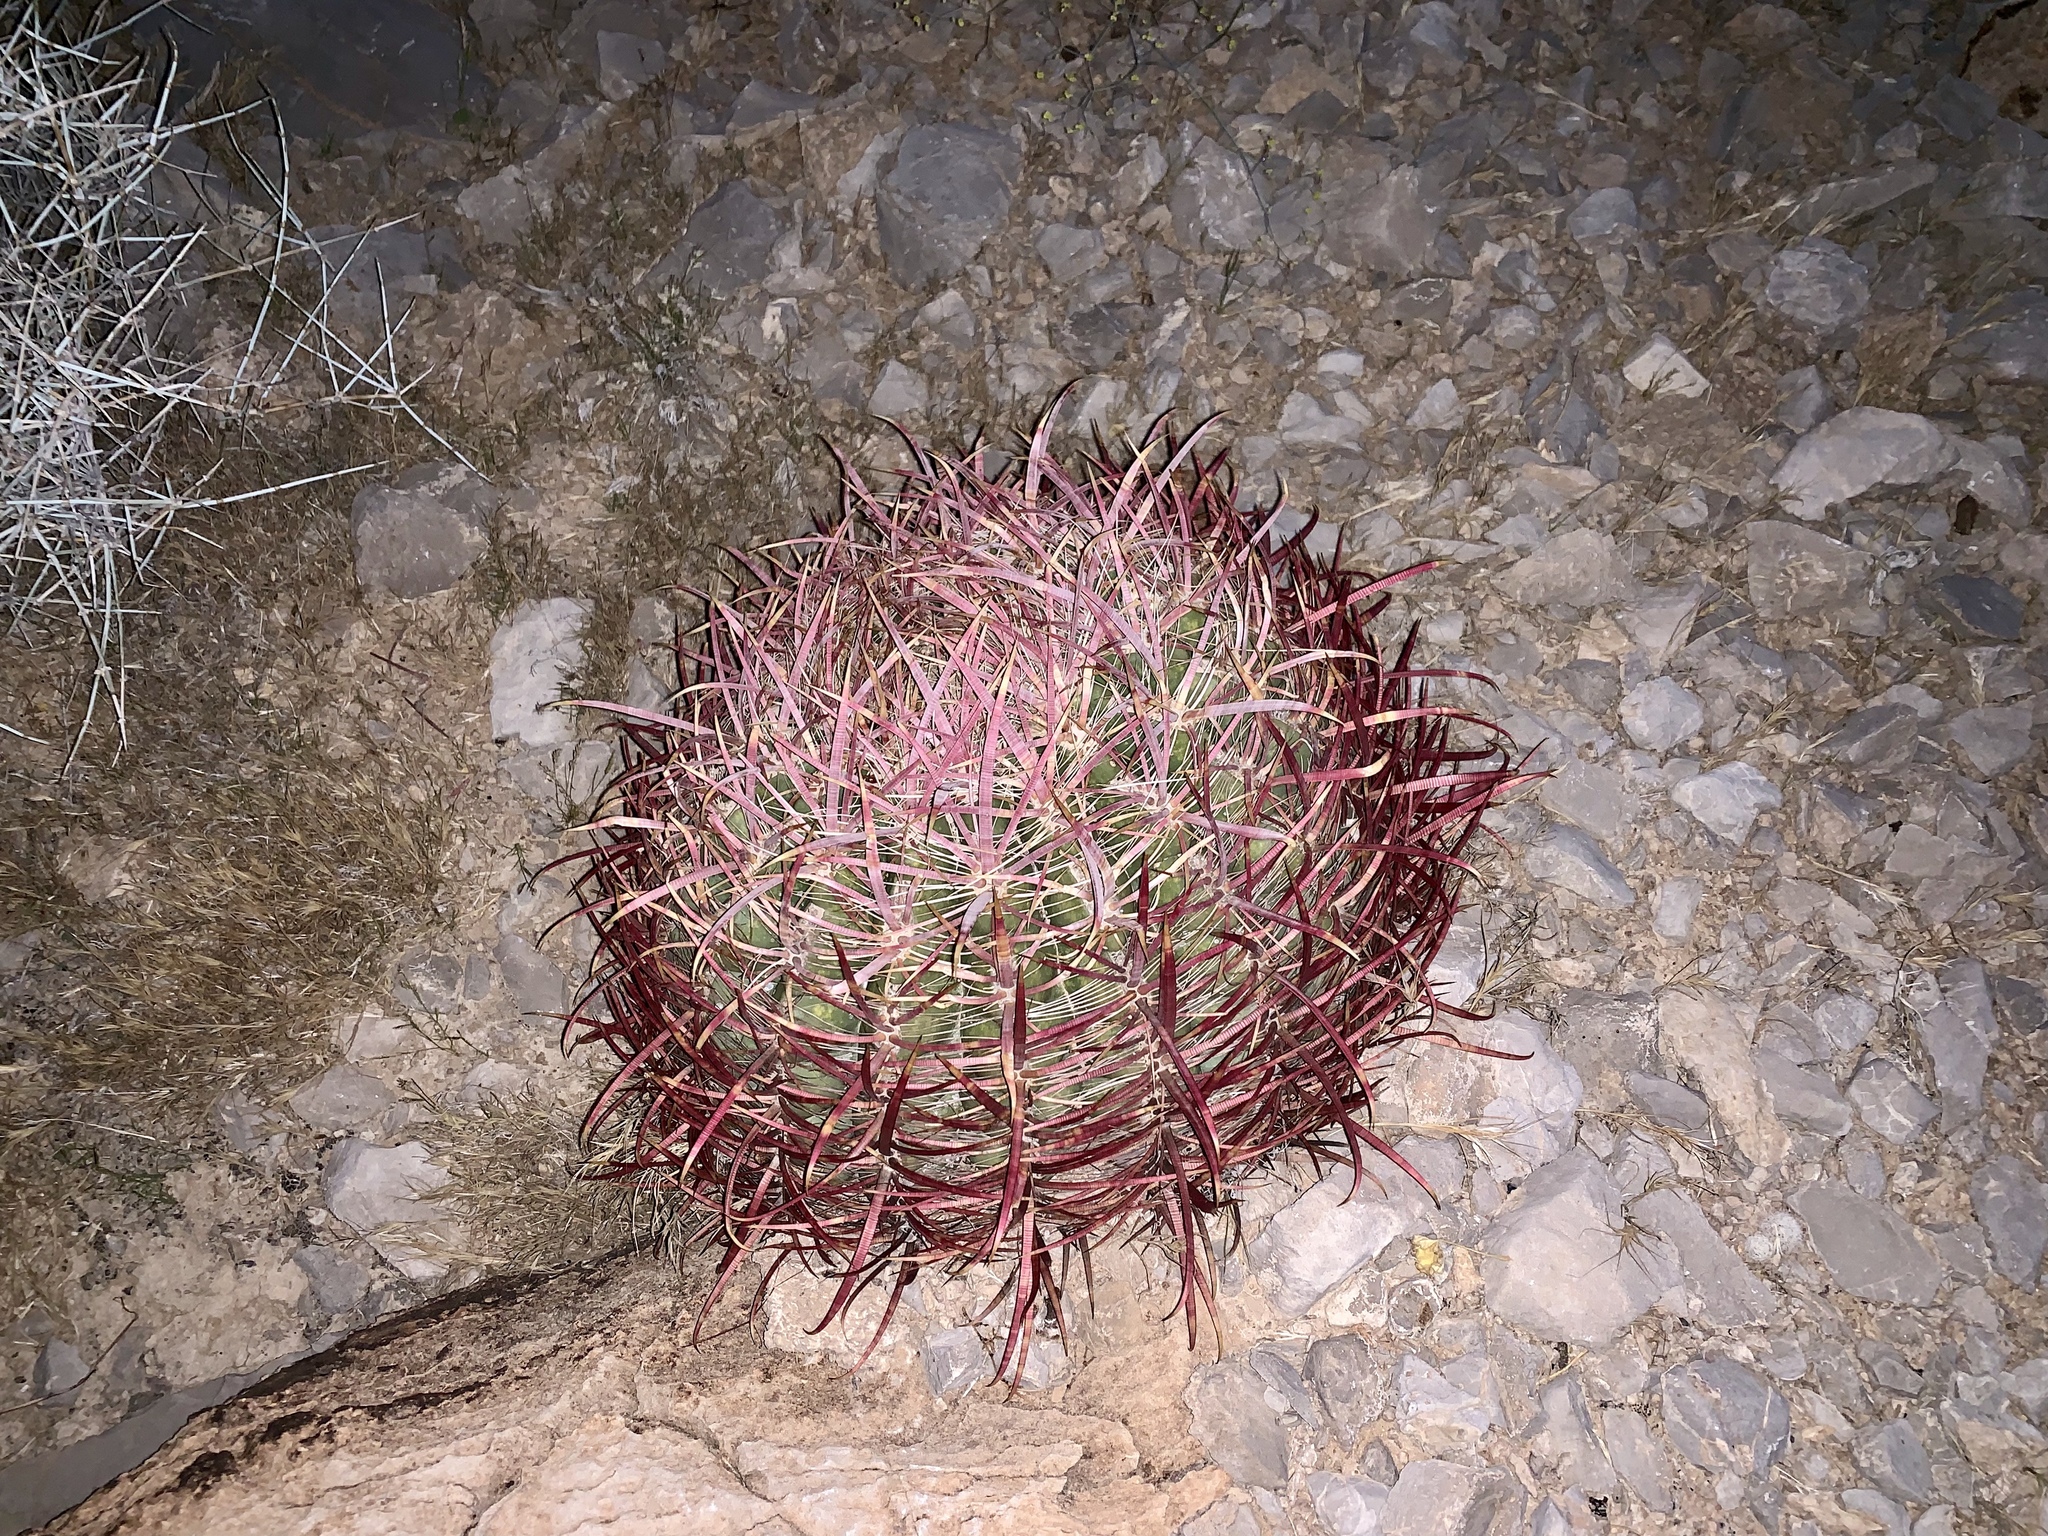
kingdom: Plantae
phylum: Tracheophyta
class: Magnoliopsida
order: Caryophyllales
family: Cactaceae
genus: Ferocactus
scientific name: Ferocactus cylindraceus
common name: California barrel cactus
